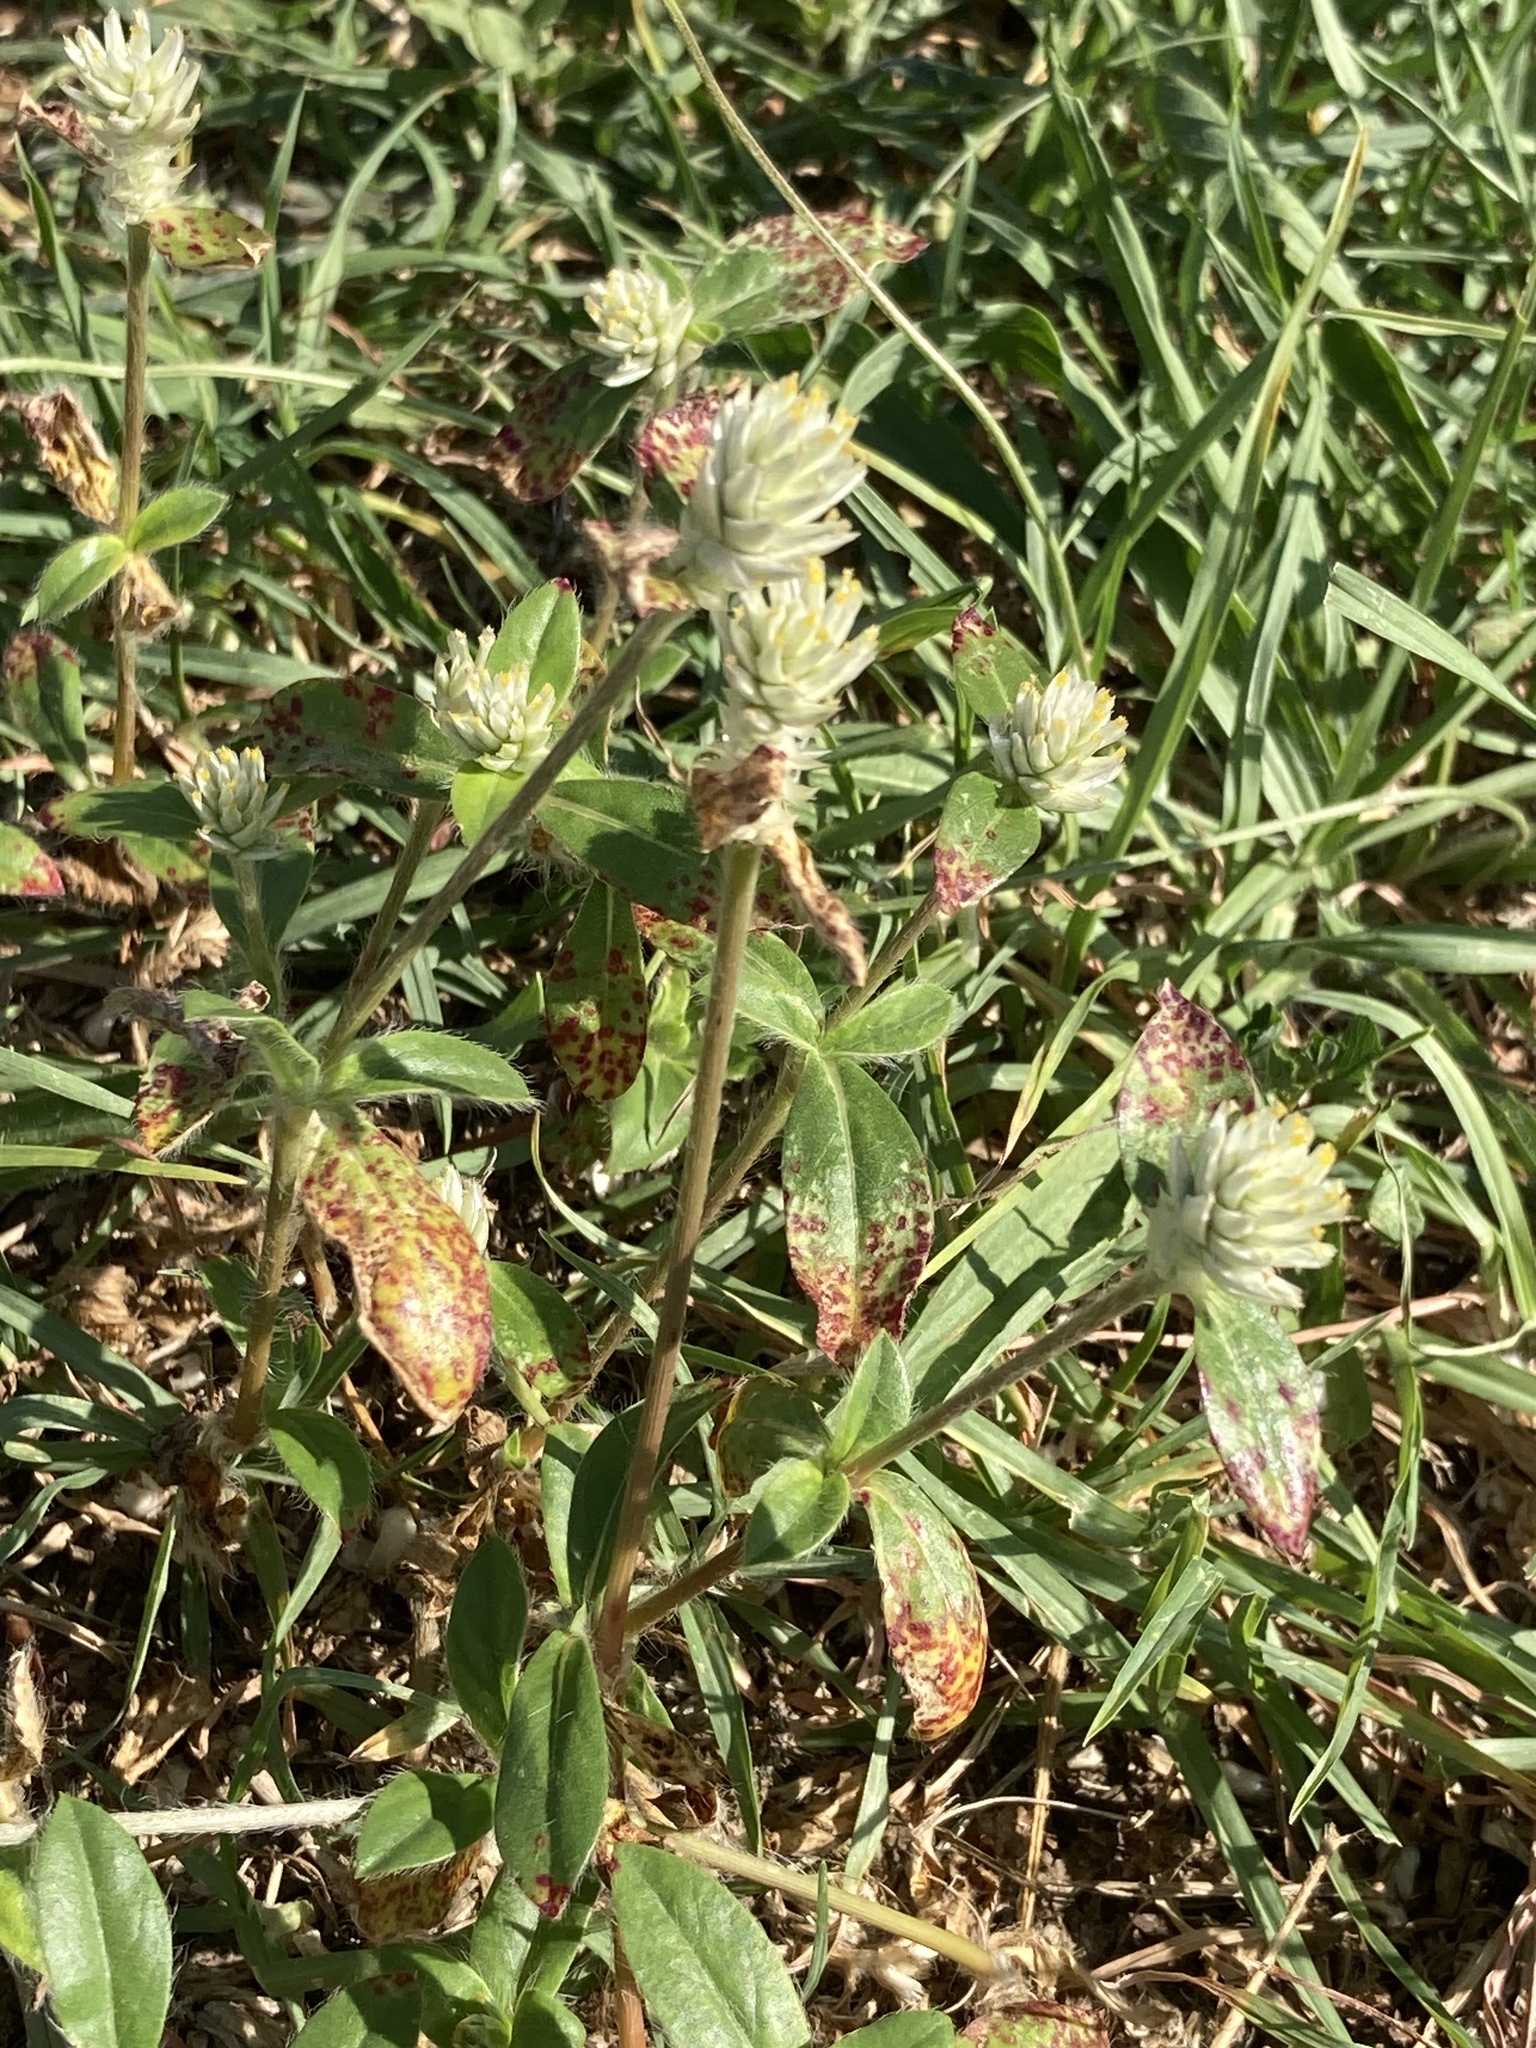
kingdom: Plantae
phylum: Tracheophyta
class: Magnoliopsida
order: Caryophyllales
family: Amaranthaceae
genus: Gomphrena
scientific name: Gomphrena celosioides
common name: Gomphrena-weed
